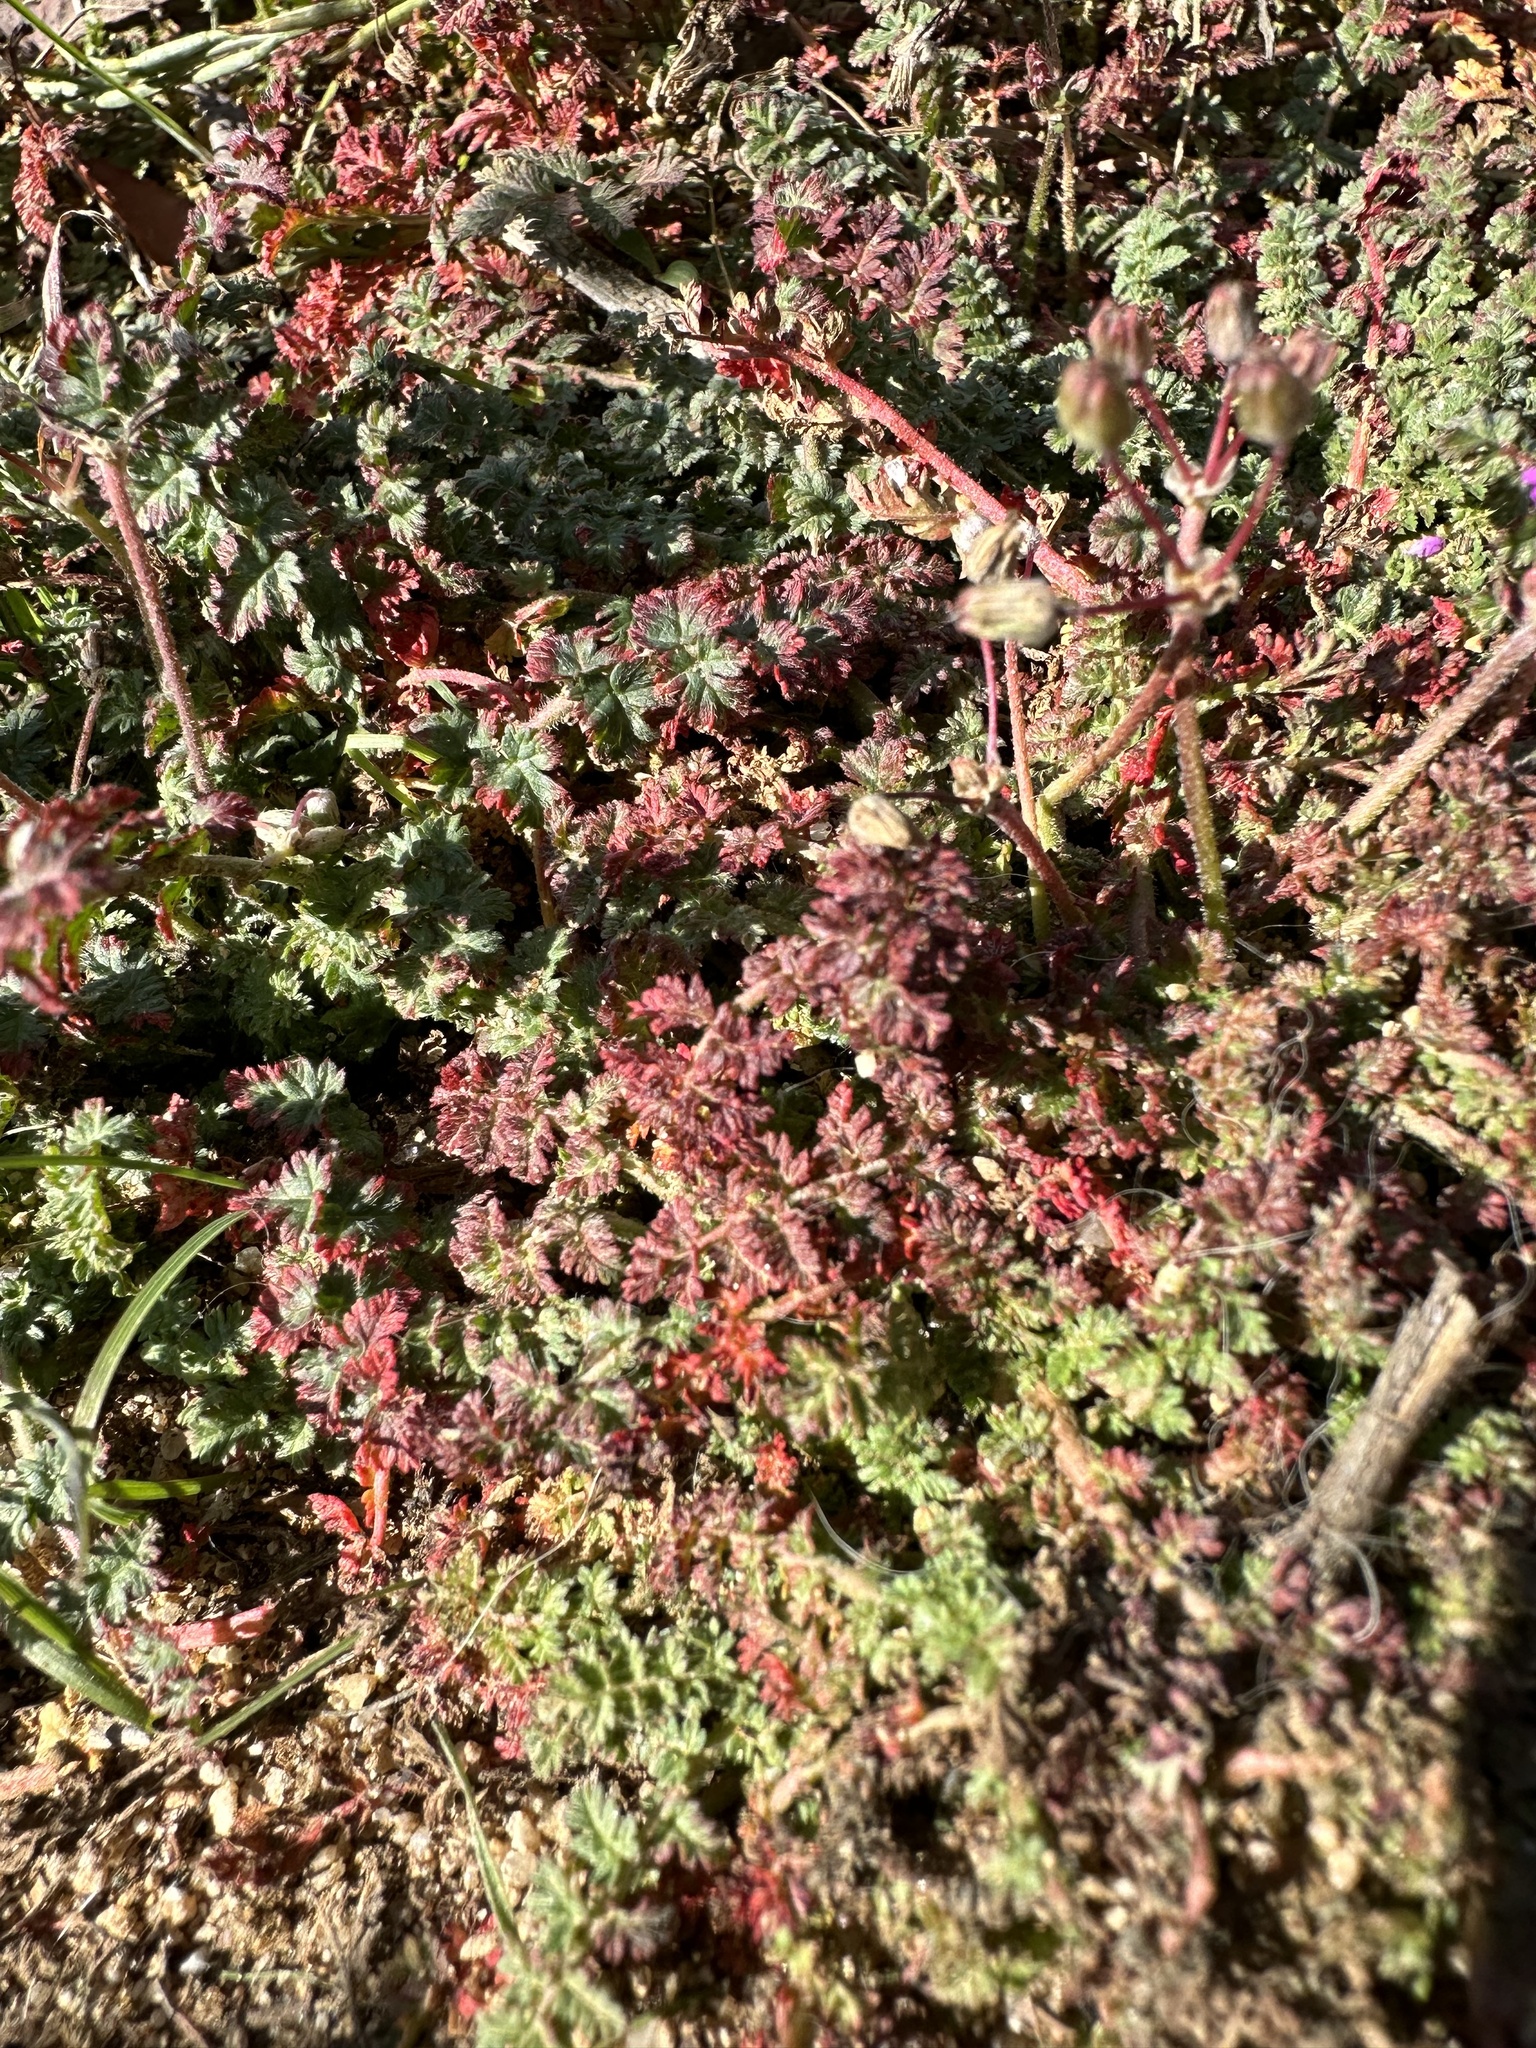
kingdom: Plantae
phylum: Tracheophyta
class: Magnoliopsida
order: Geraniales
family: Geraniaceae
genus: Erodium
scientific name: Erodium cicutarium
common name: Common stork's-bill
